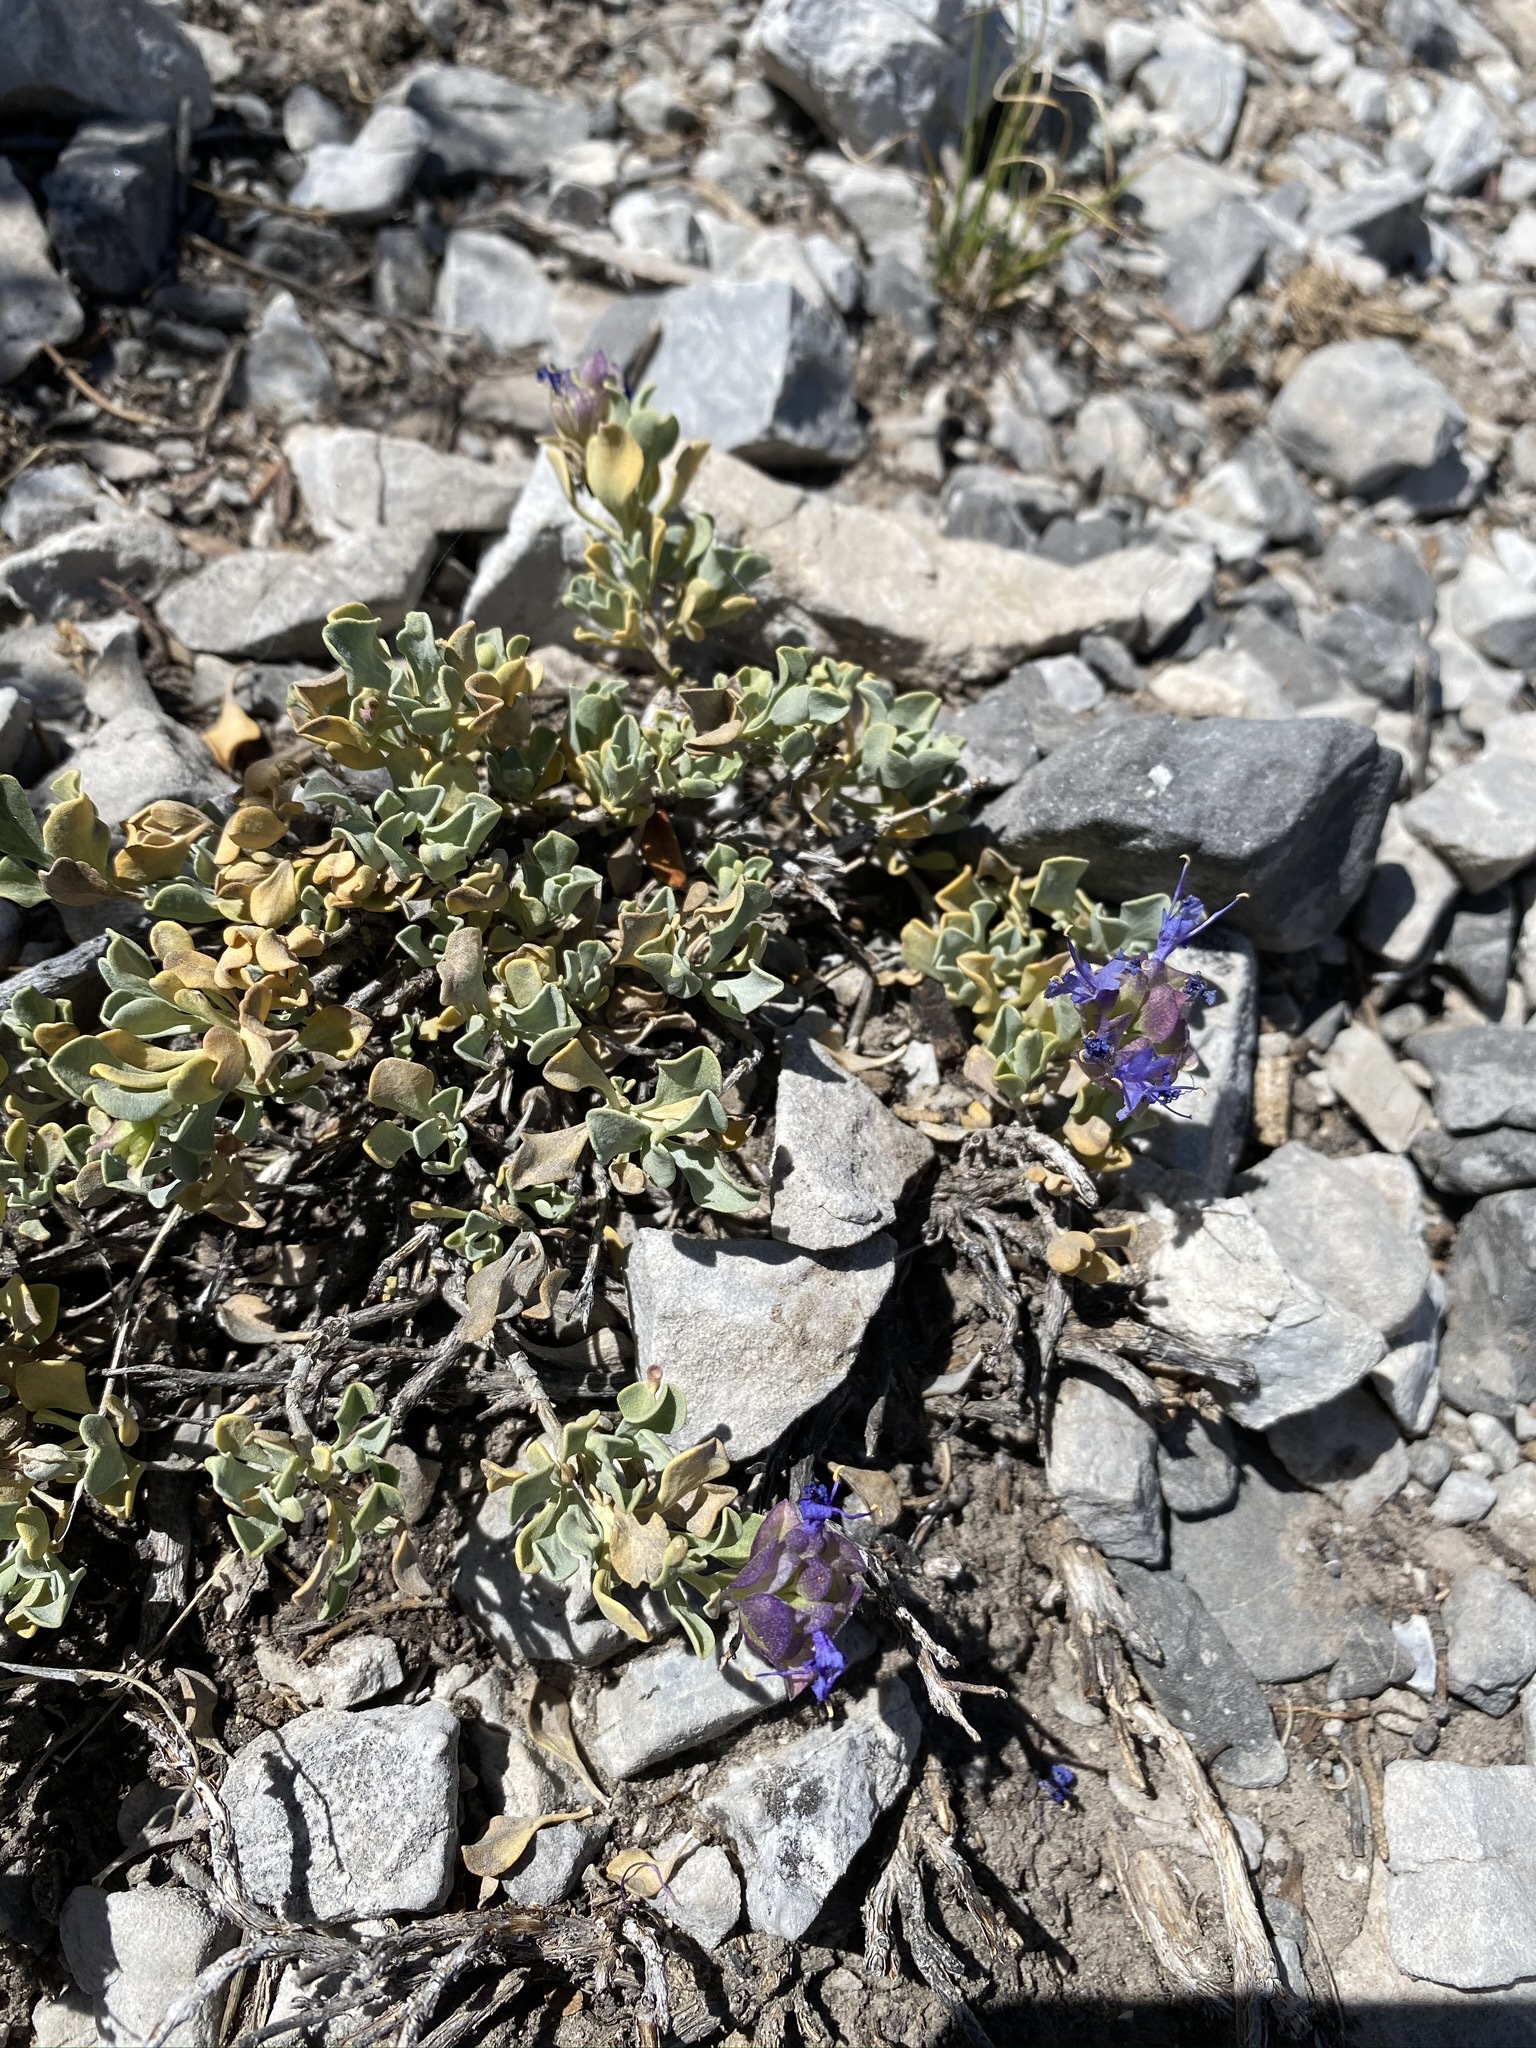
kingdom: Plantae
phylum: Tracheophyta
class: Magnoliopsida
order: Lamiales
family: Lamiaceae
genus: Salvia
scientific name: Salvia dorrii
